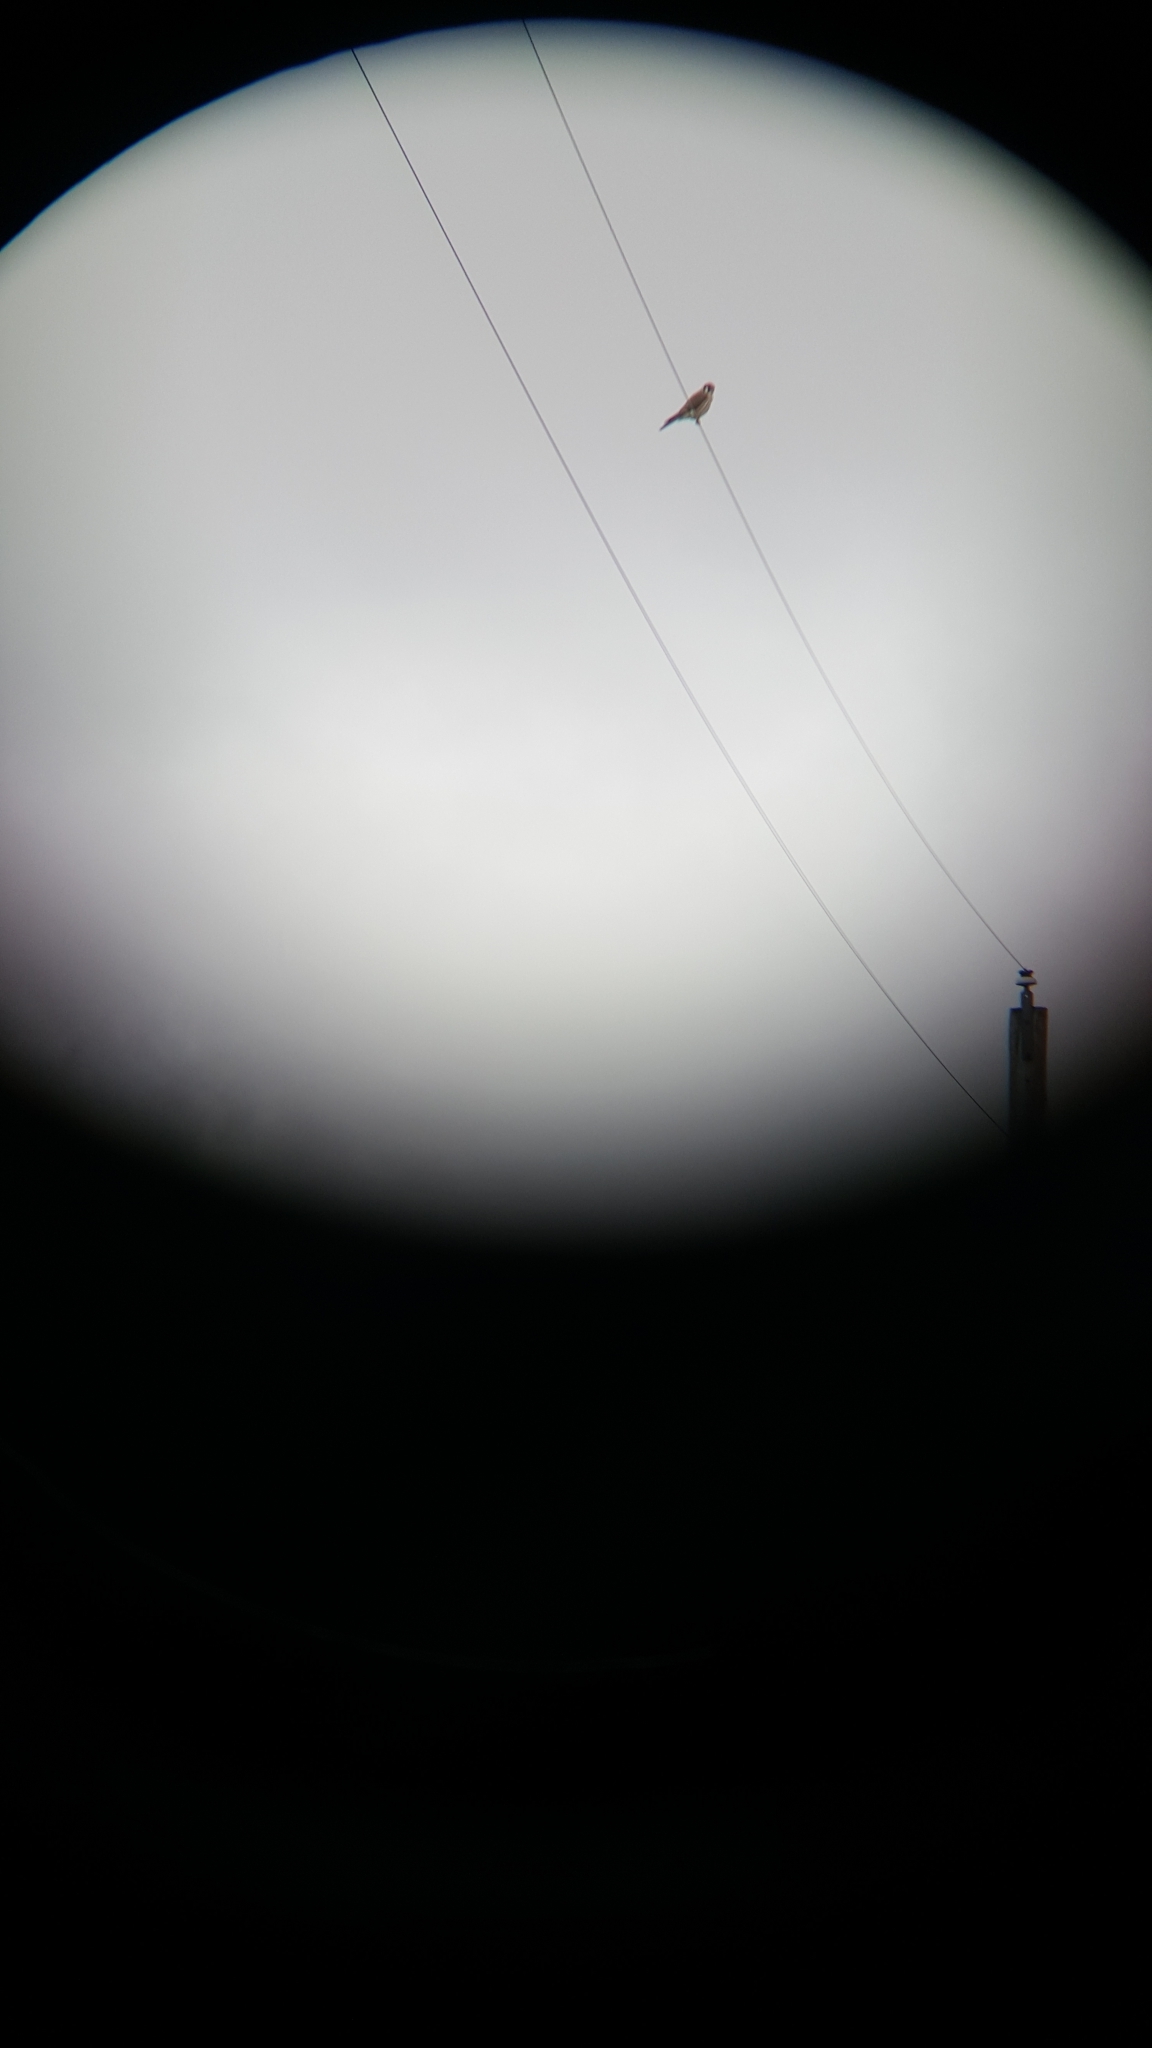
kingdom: Animalia
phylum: Chordata
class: Aves
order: Falconiformes
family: Falconidae
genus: Falco
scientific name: Falco sparverius
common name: American kestrel
